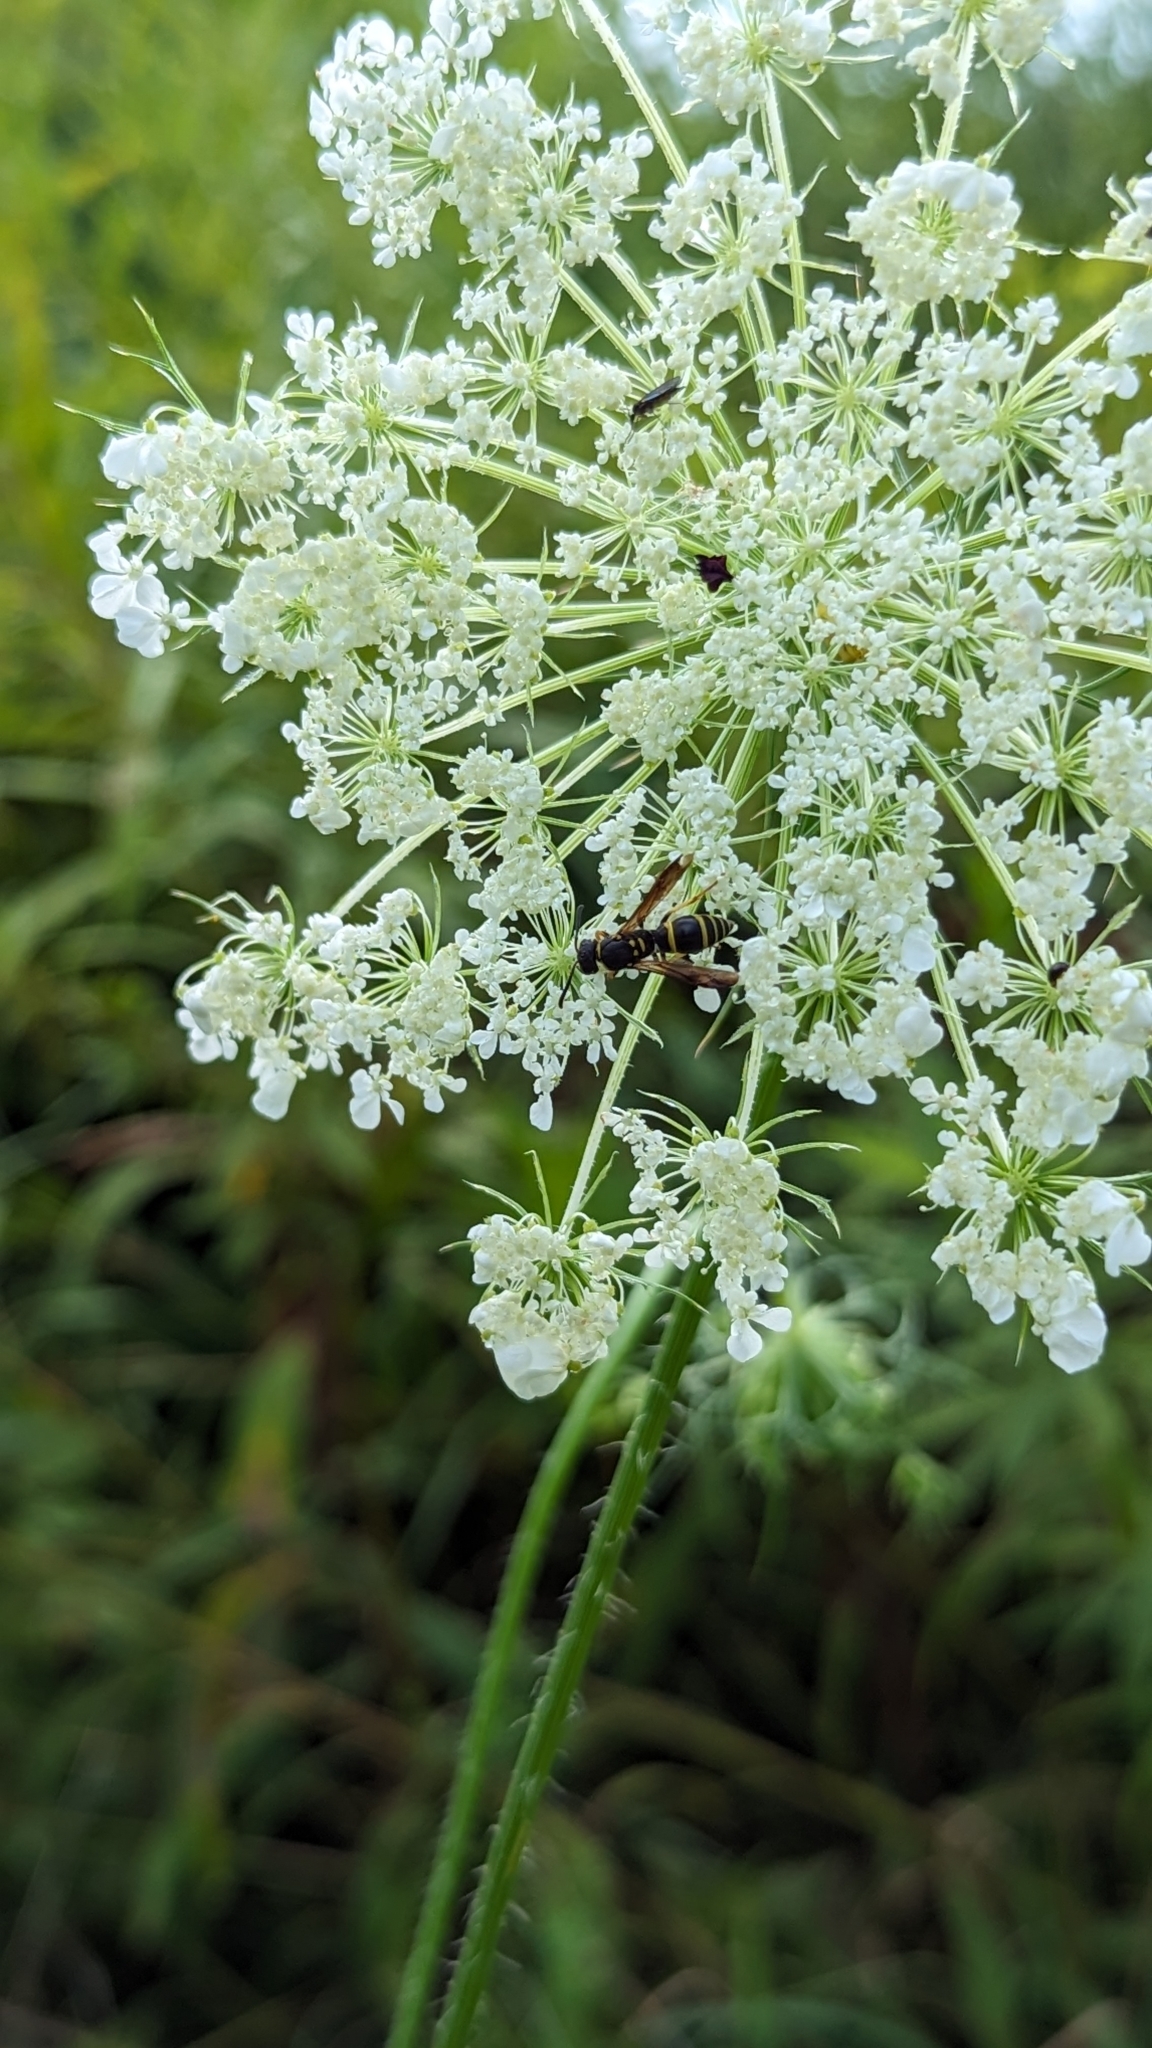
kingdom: Animalia
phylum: Arthropoda
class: Insecta
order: Hymenoptera
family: Vespidae
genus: Ancistrocerus
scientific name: Ancistrocerus adiabatus
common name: Bramble mason wasp
